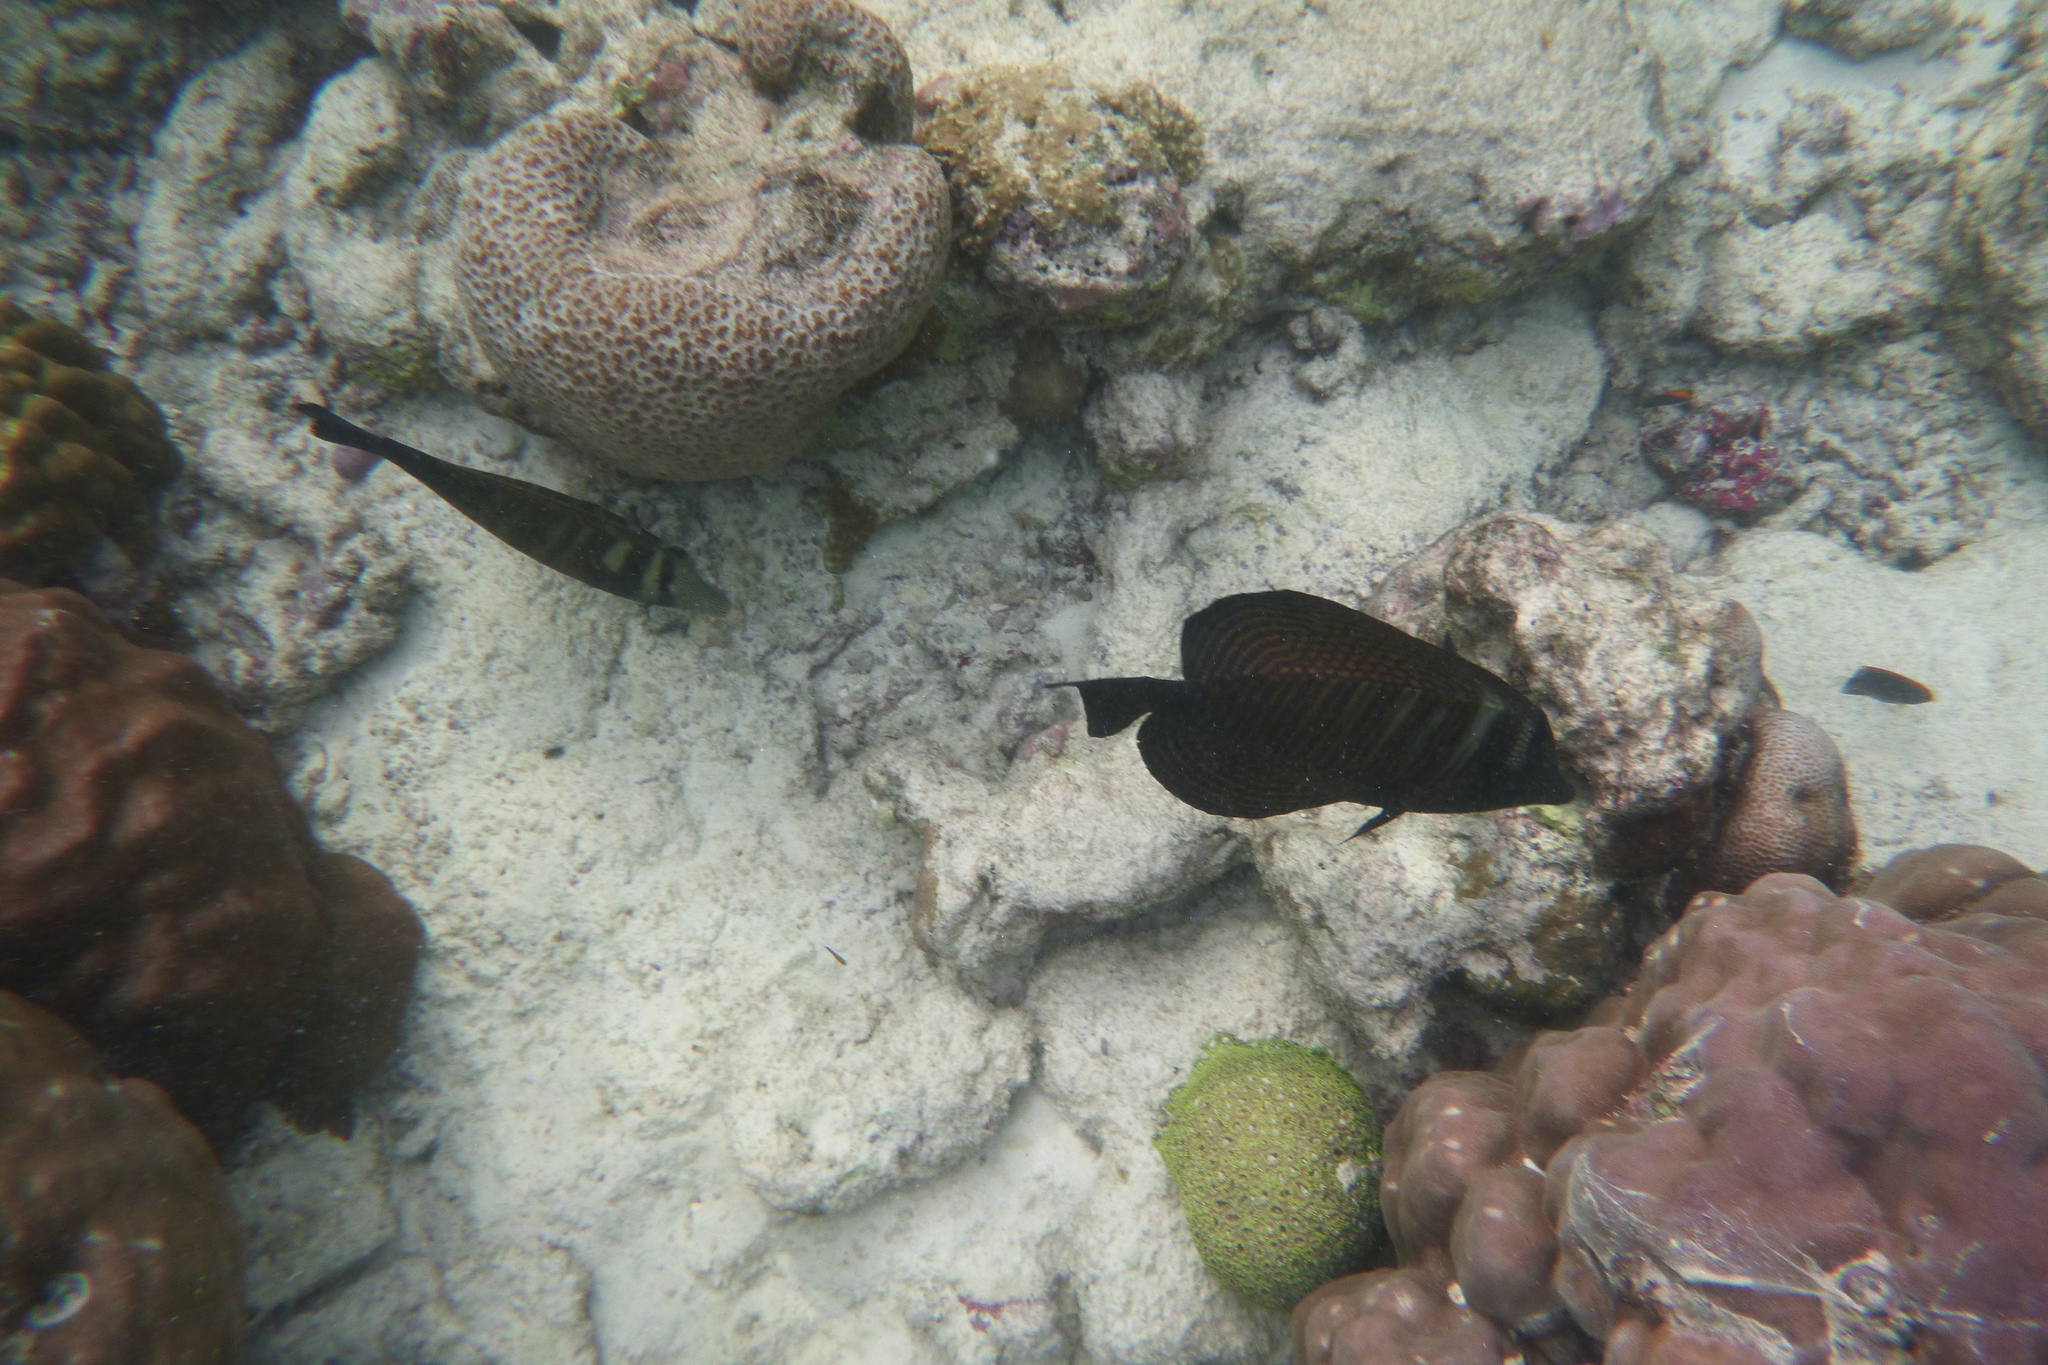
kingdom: Animalia
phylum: Chordata
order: Perciformes
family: Acanthuridae
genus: Zebrasoma
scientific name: Zebrasoma desjardinii
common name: Desjardin's sailfin tang
